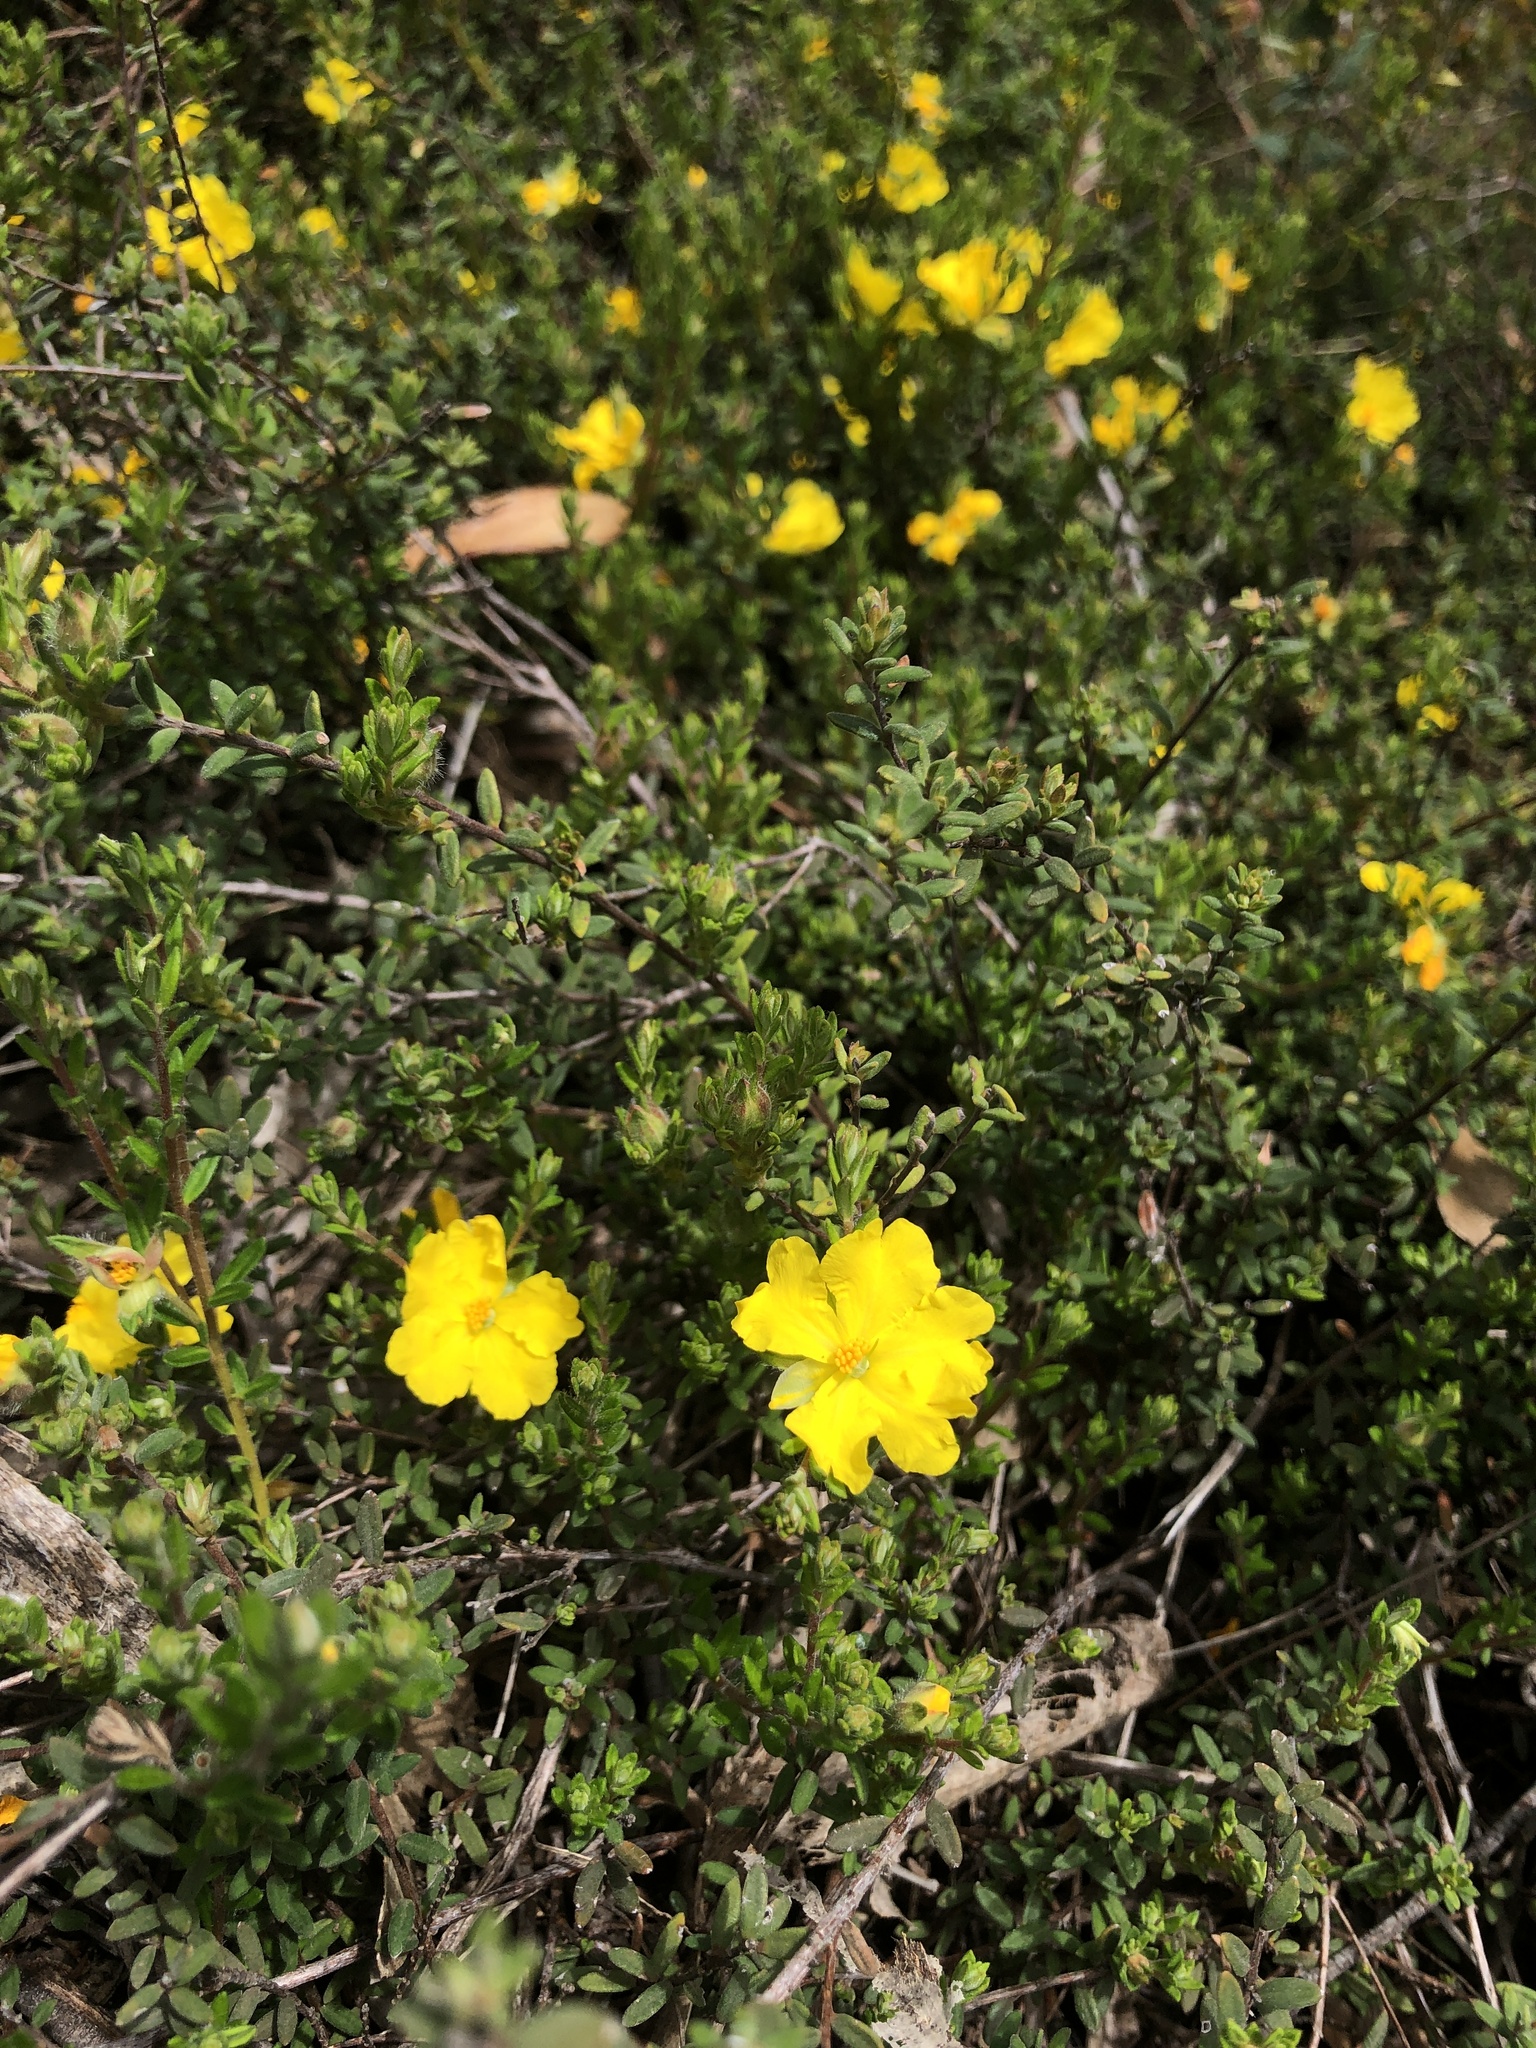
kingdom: Plantae
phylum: Tracheophyta
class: Magnoliopsida
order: Dilleniales
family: Dilleniaceae
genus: Hibbertia
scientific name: Hibbertia crinita
